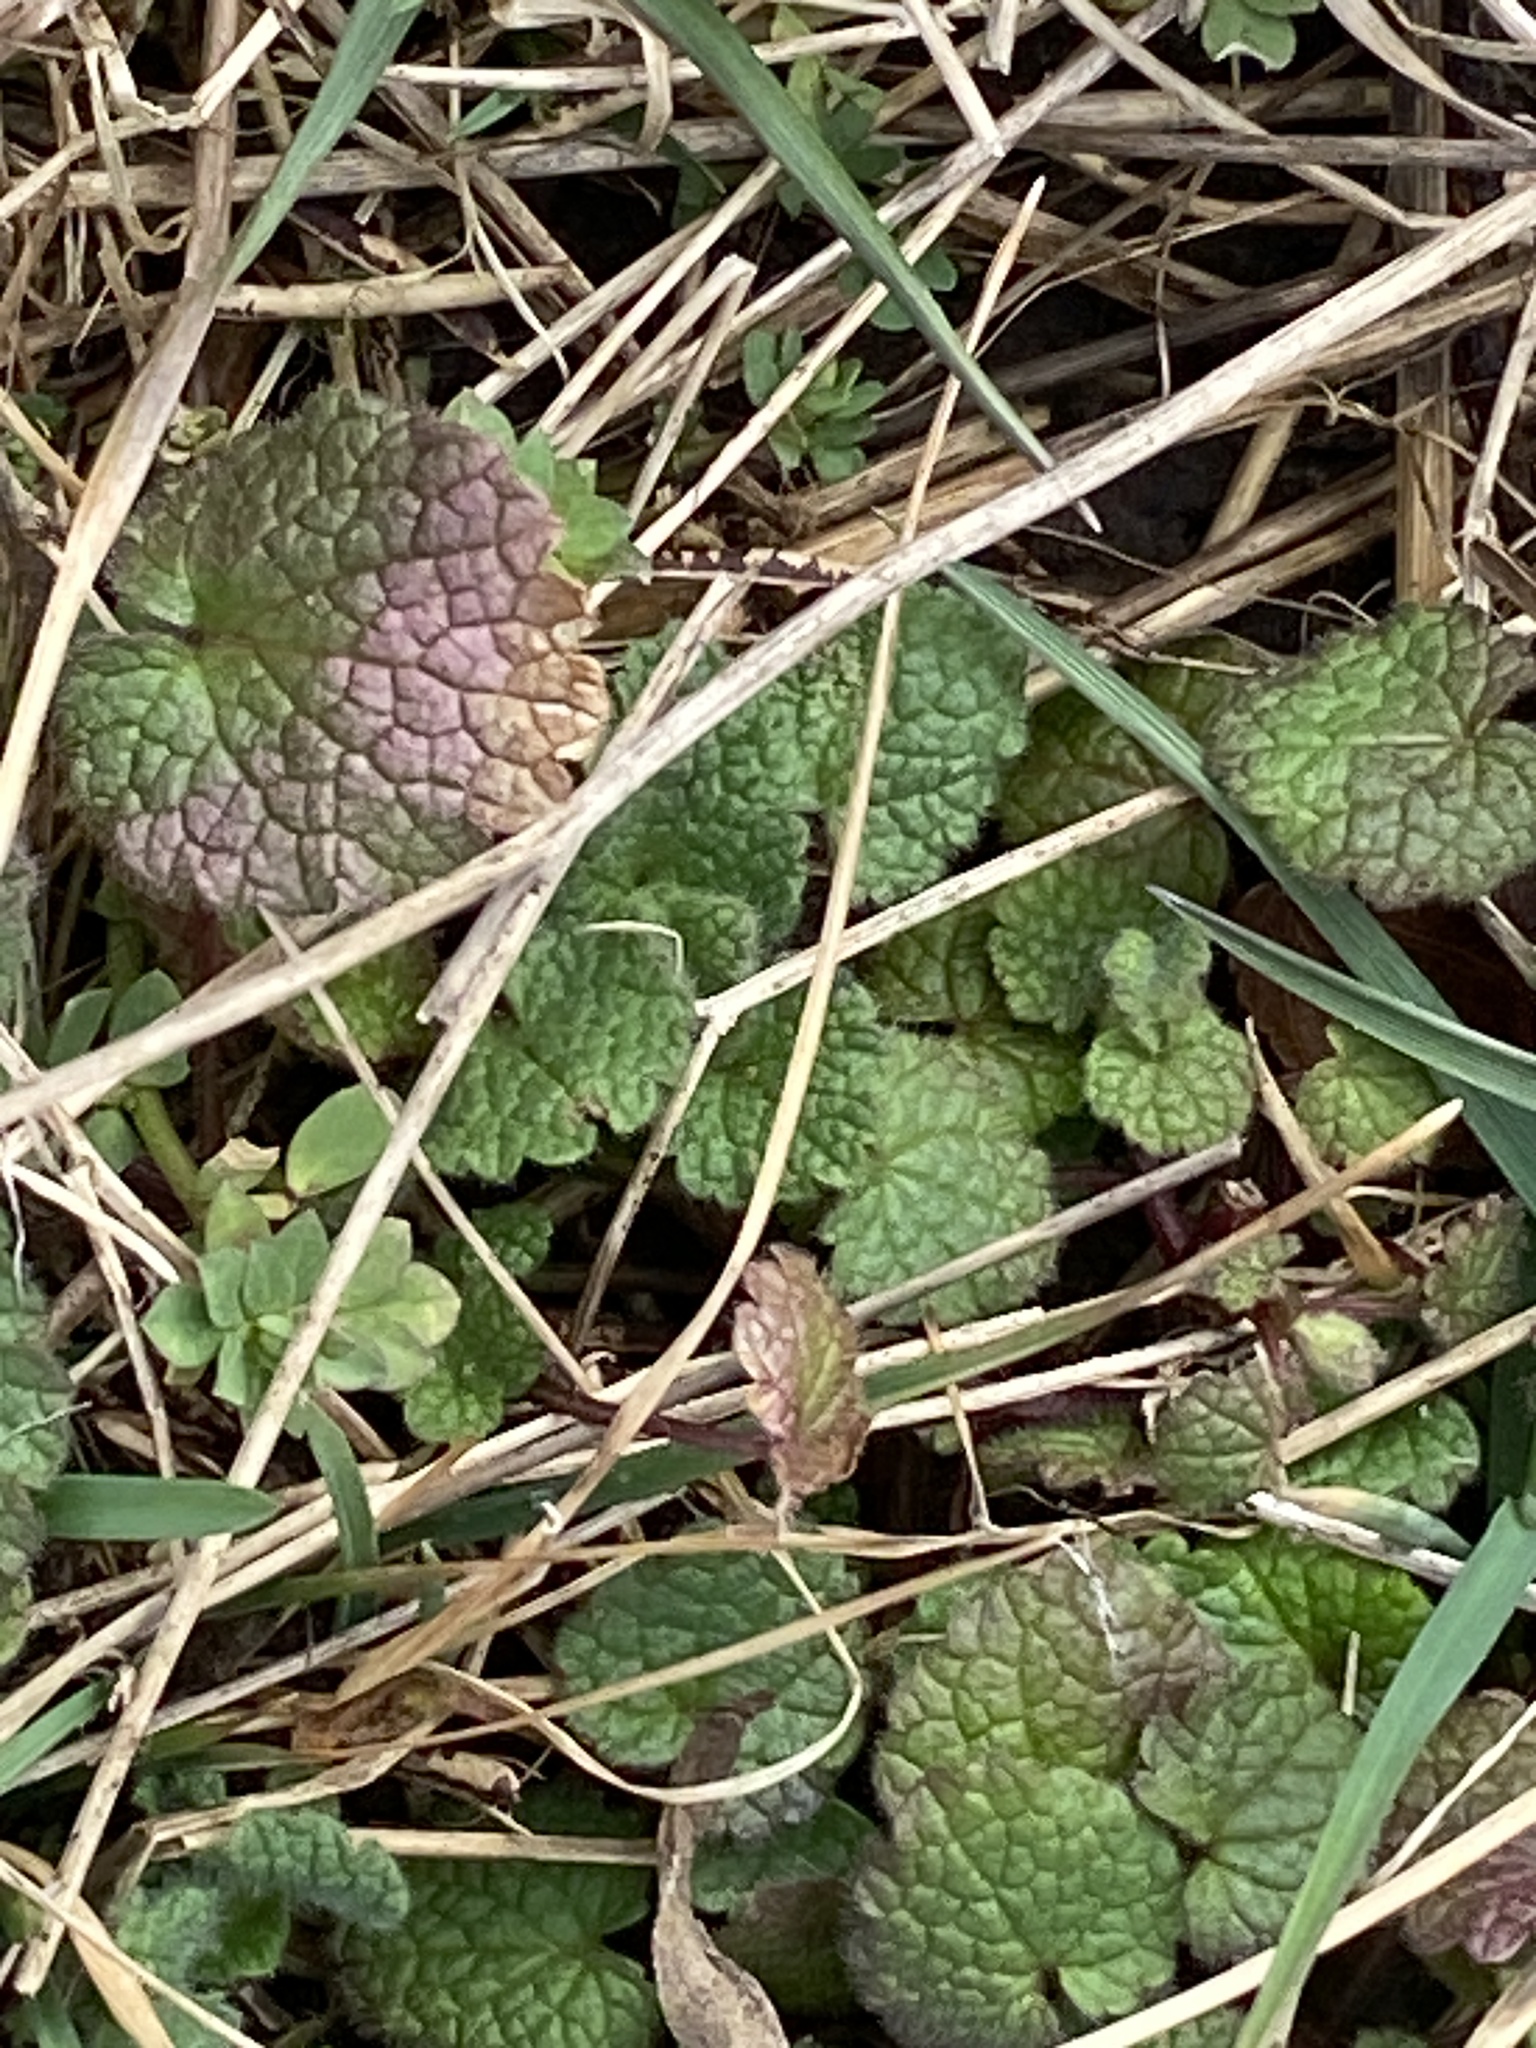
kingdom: Plantae
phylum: Tracheophyta
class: Magnoliopsida
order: Lamiales
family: Lamiaceae
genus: Lamium
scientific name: Lamium purpureum
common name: Red dead-nettle
